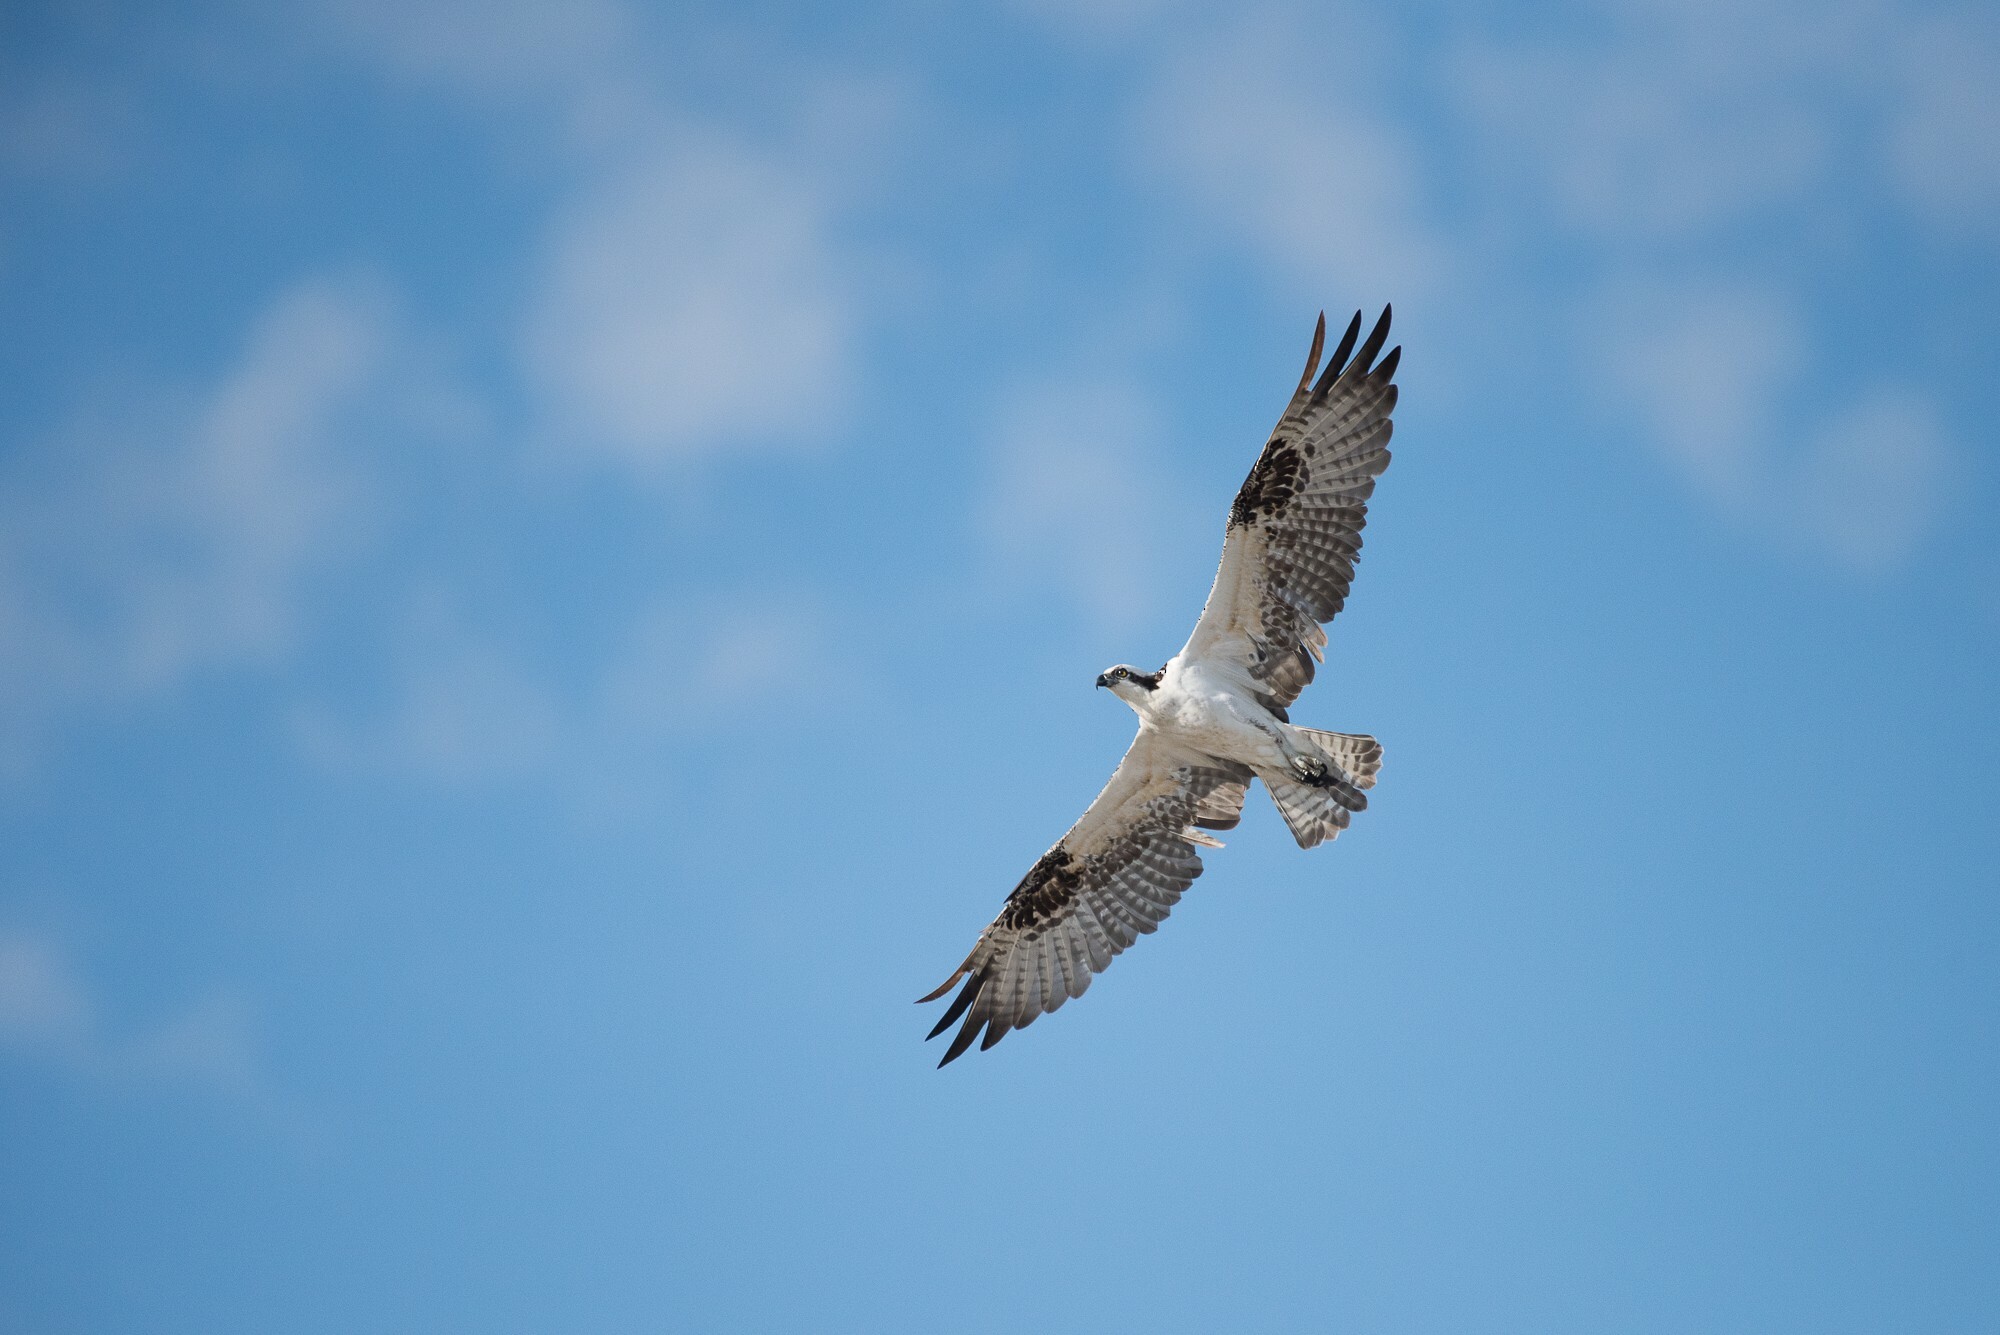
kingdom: Animalia
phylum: Chordata
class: Aves
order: Accipitriformes
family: Pandionidae
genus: Pandion
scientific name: Pandion haliaetus
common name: Osprey
